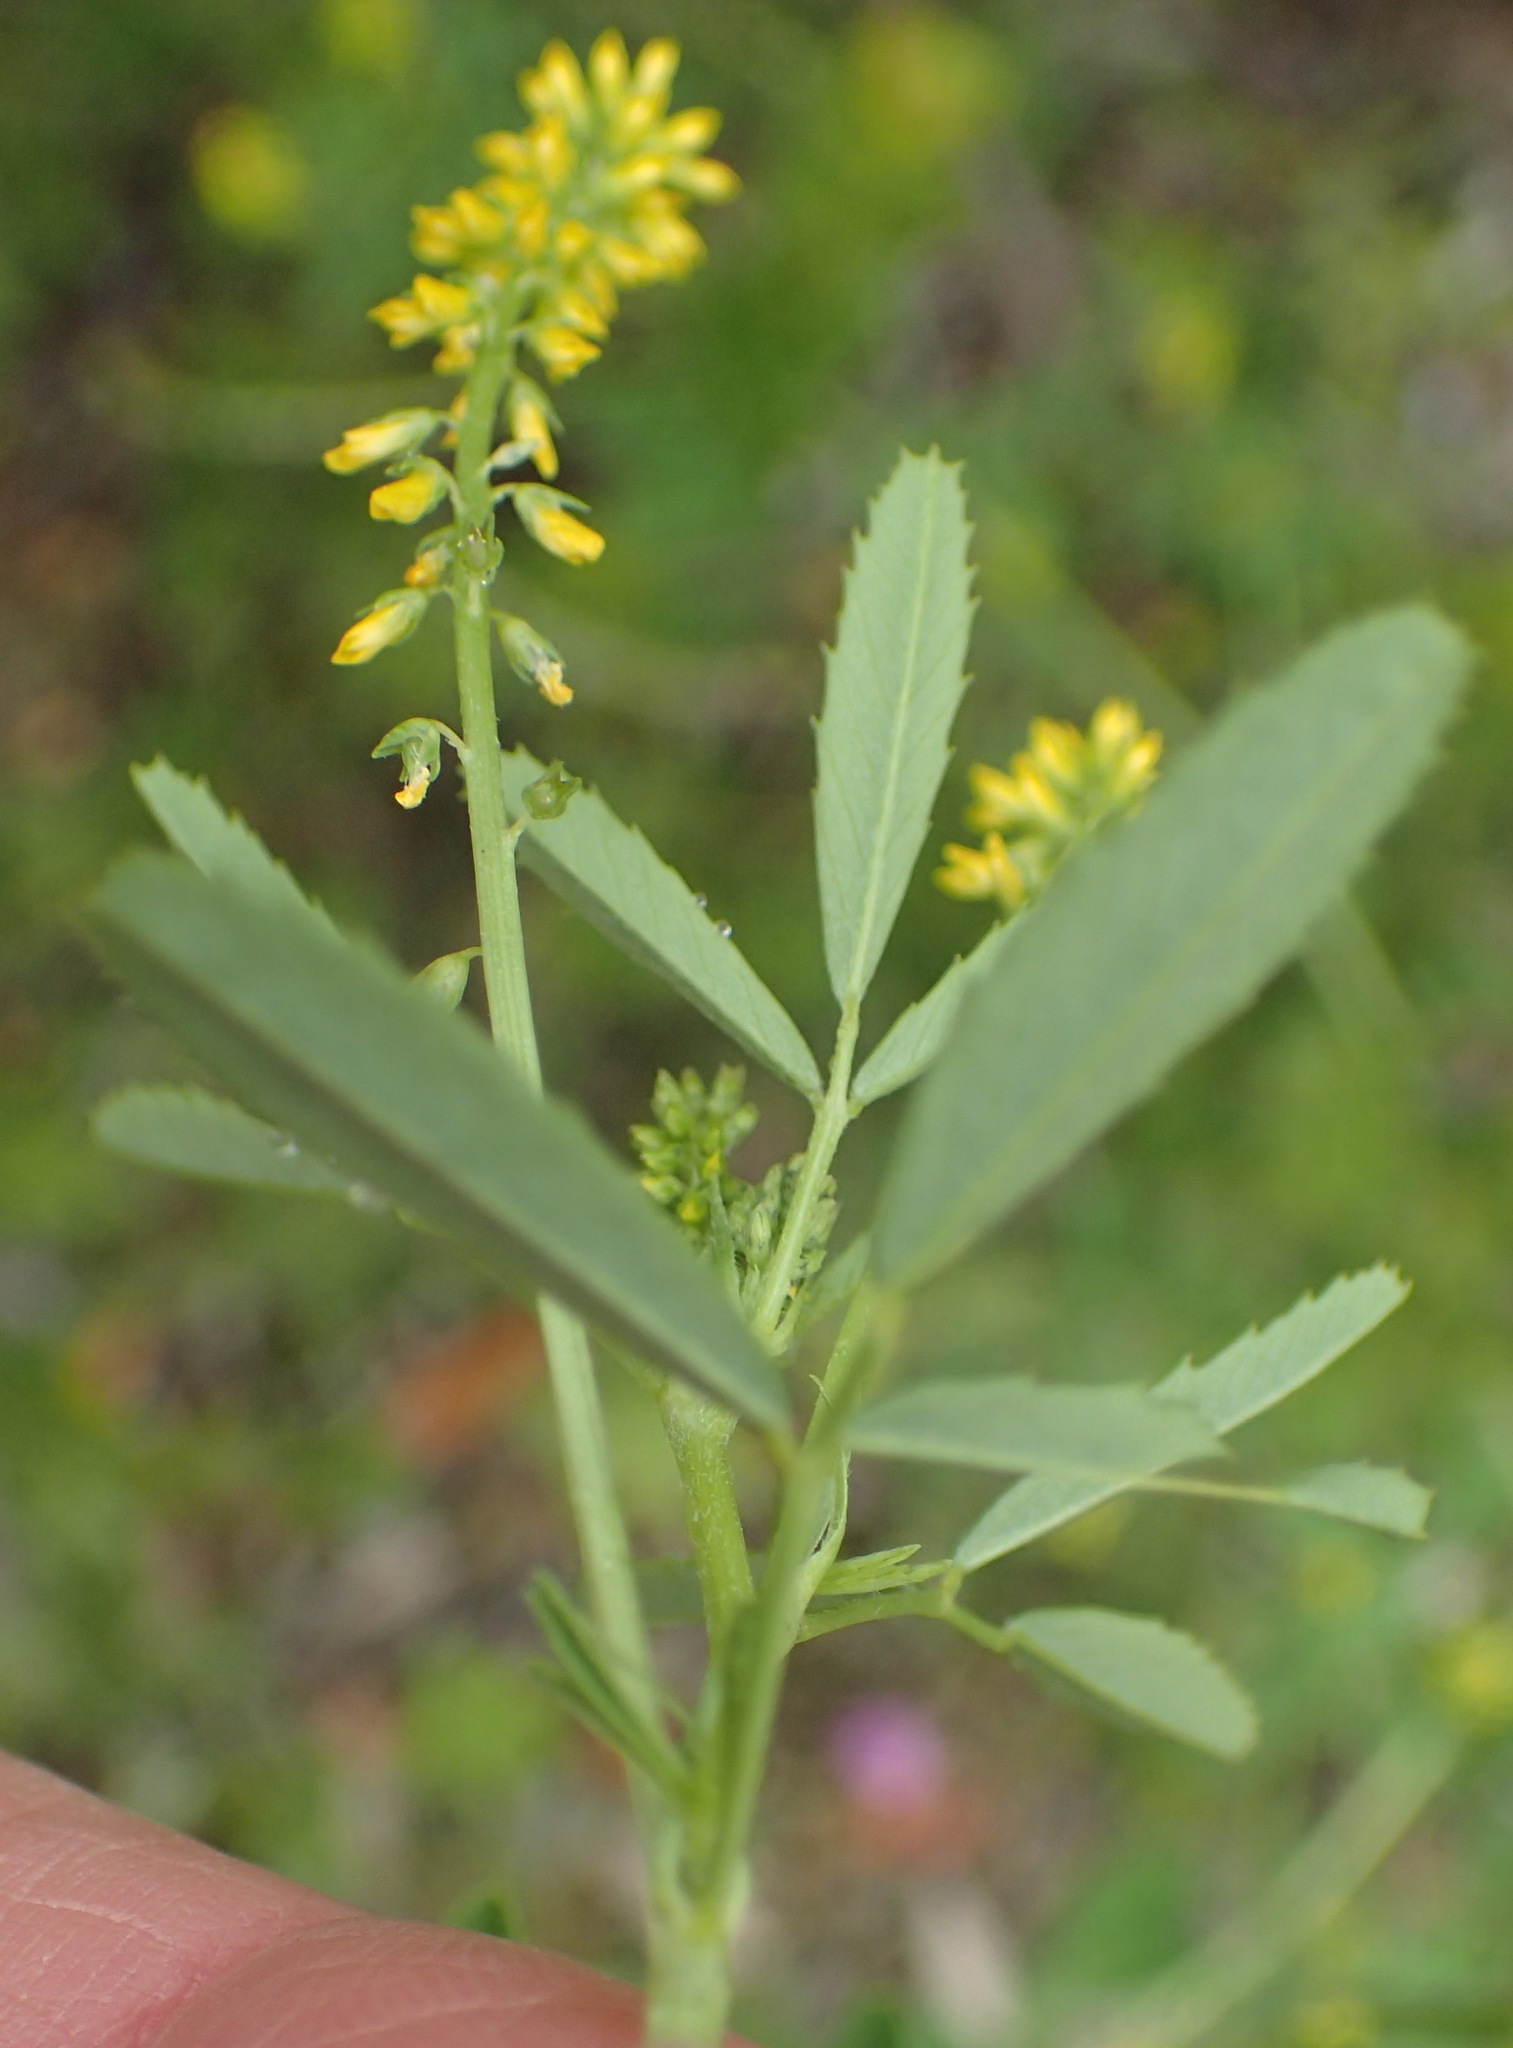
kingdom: Plantae
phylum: Tracheophyta
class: Magnoliopsida
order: Fabales
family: Fabaceae
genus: Melilotus
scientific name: Melilotus indicus
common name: Small melilot
